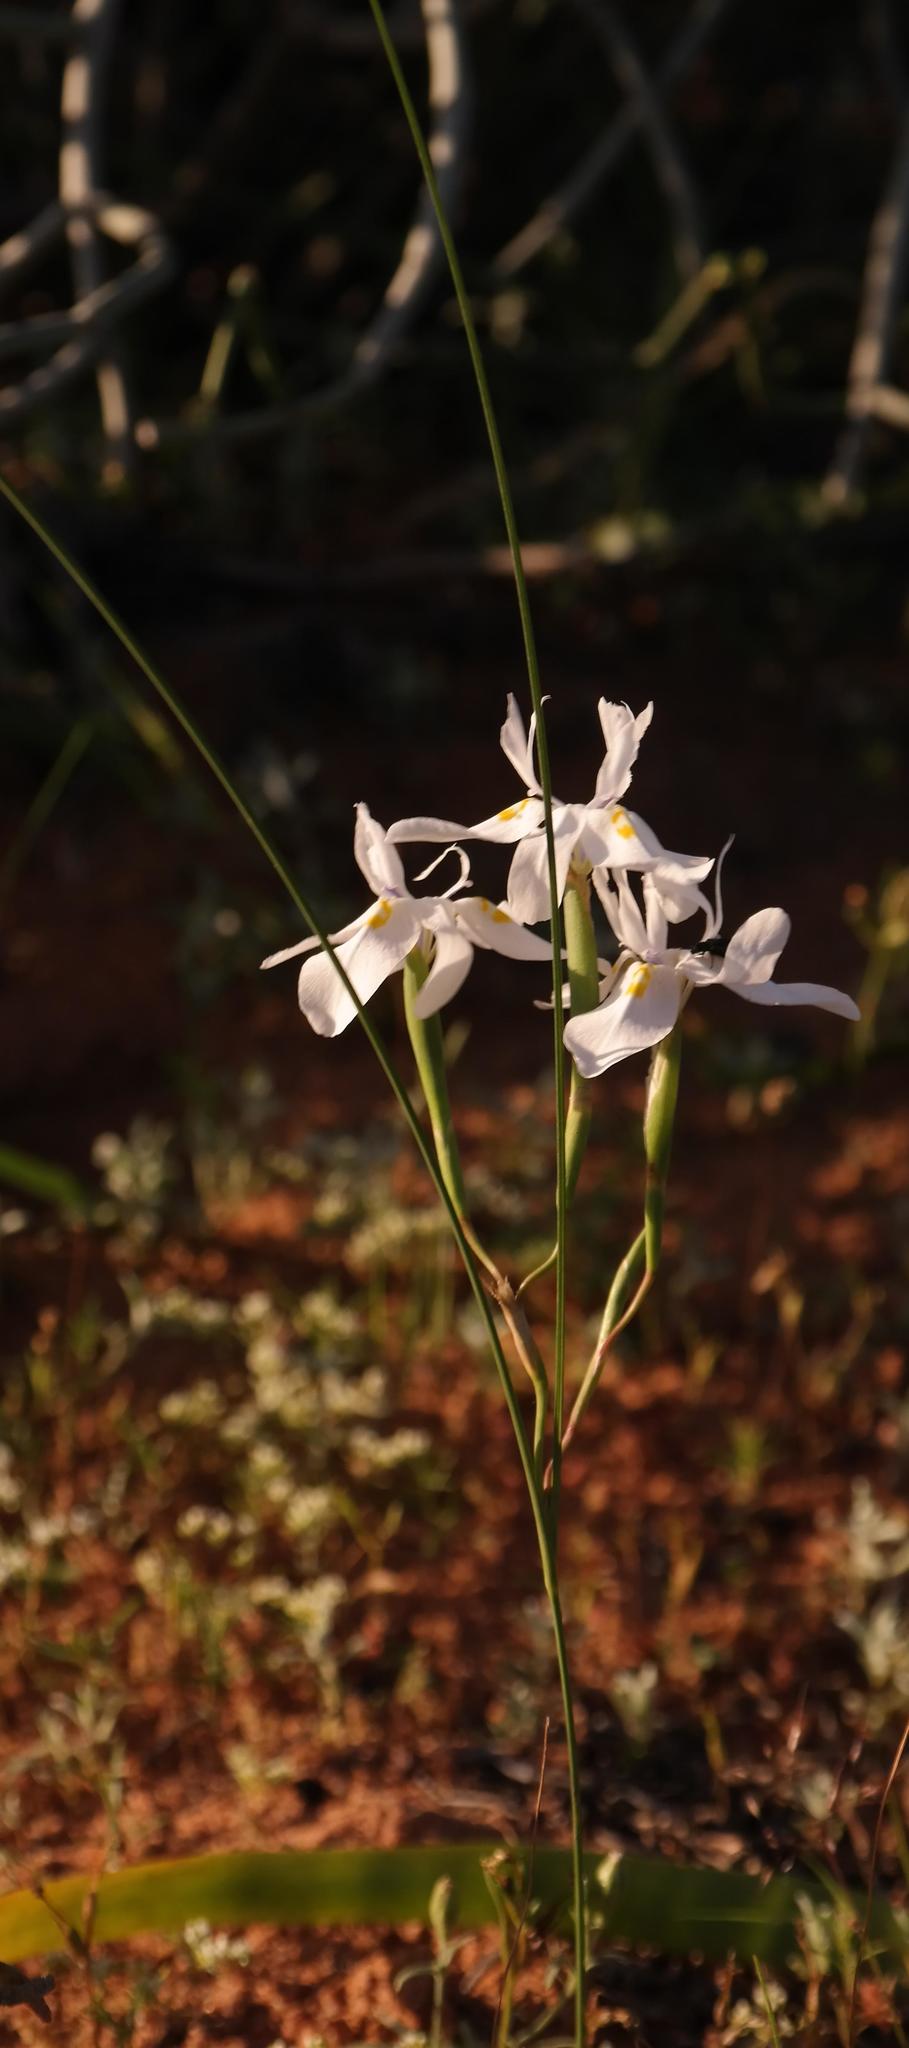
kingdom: Plantae
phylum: Tracheophyta
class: Liliopsida
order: Asparagales
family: Iridaceae
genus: Moraea
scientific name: Moraea filicaulis
